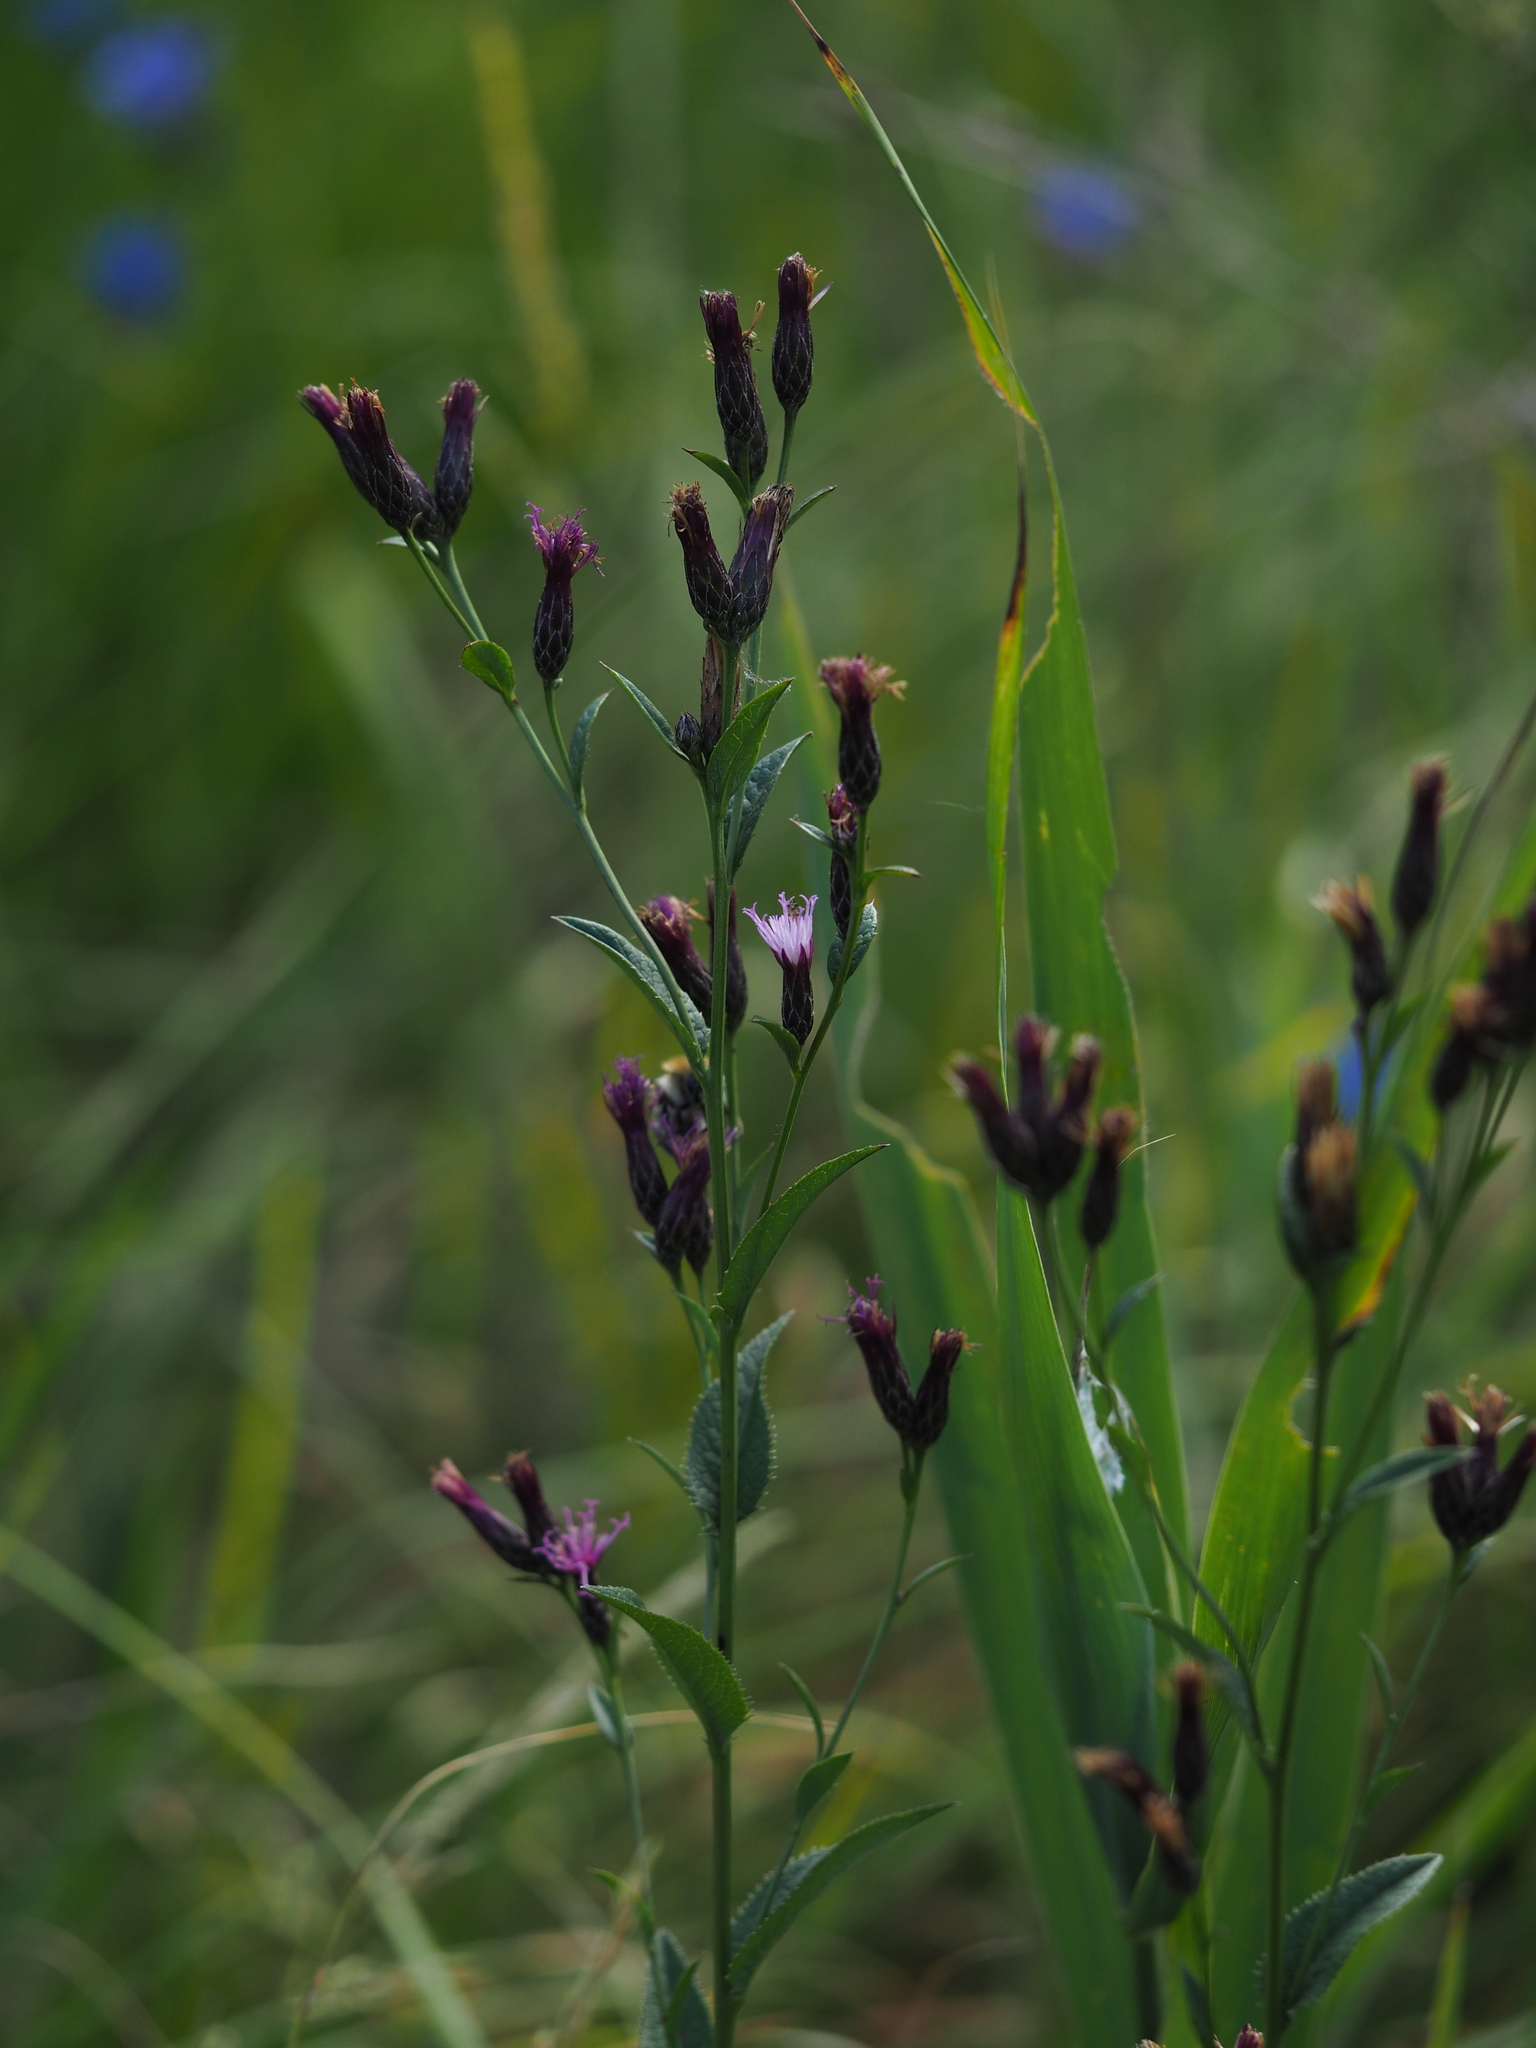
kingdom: Plantae
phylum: Tracheophyta
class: Magnoliopsida
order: Asterales
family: Asteraceae
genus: Serratula
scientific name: Serratula tinctoria
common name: Saw-wort
